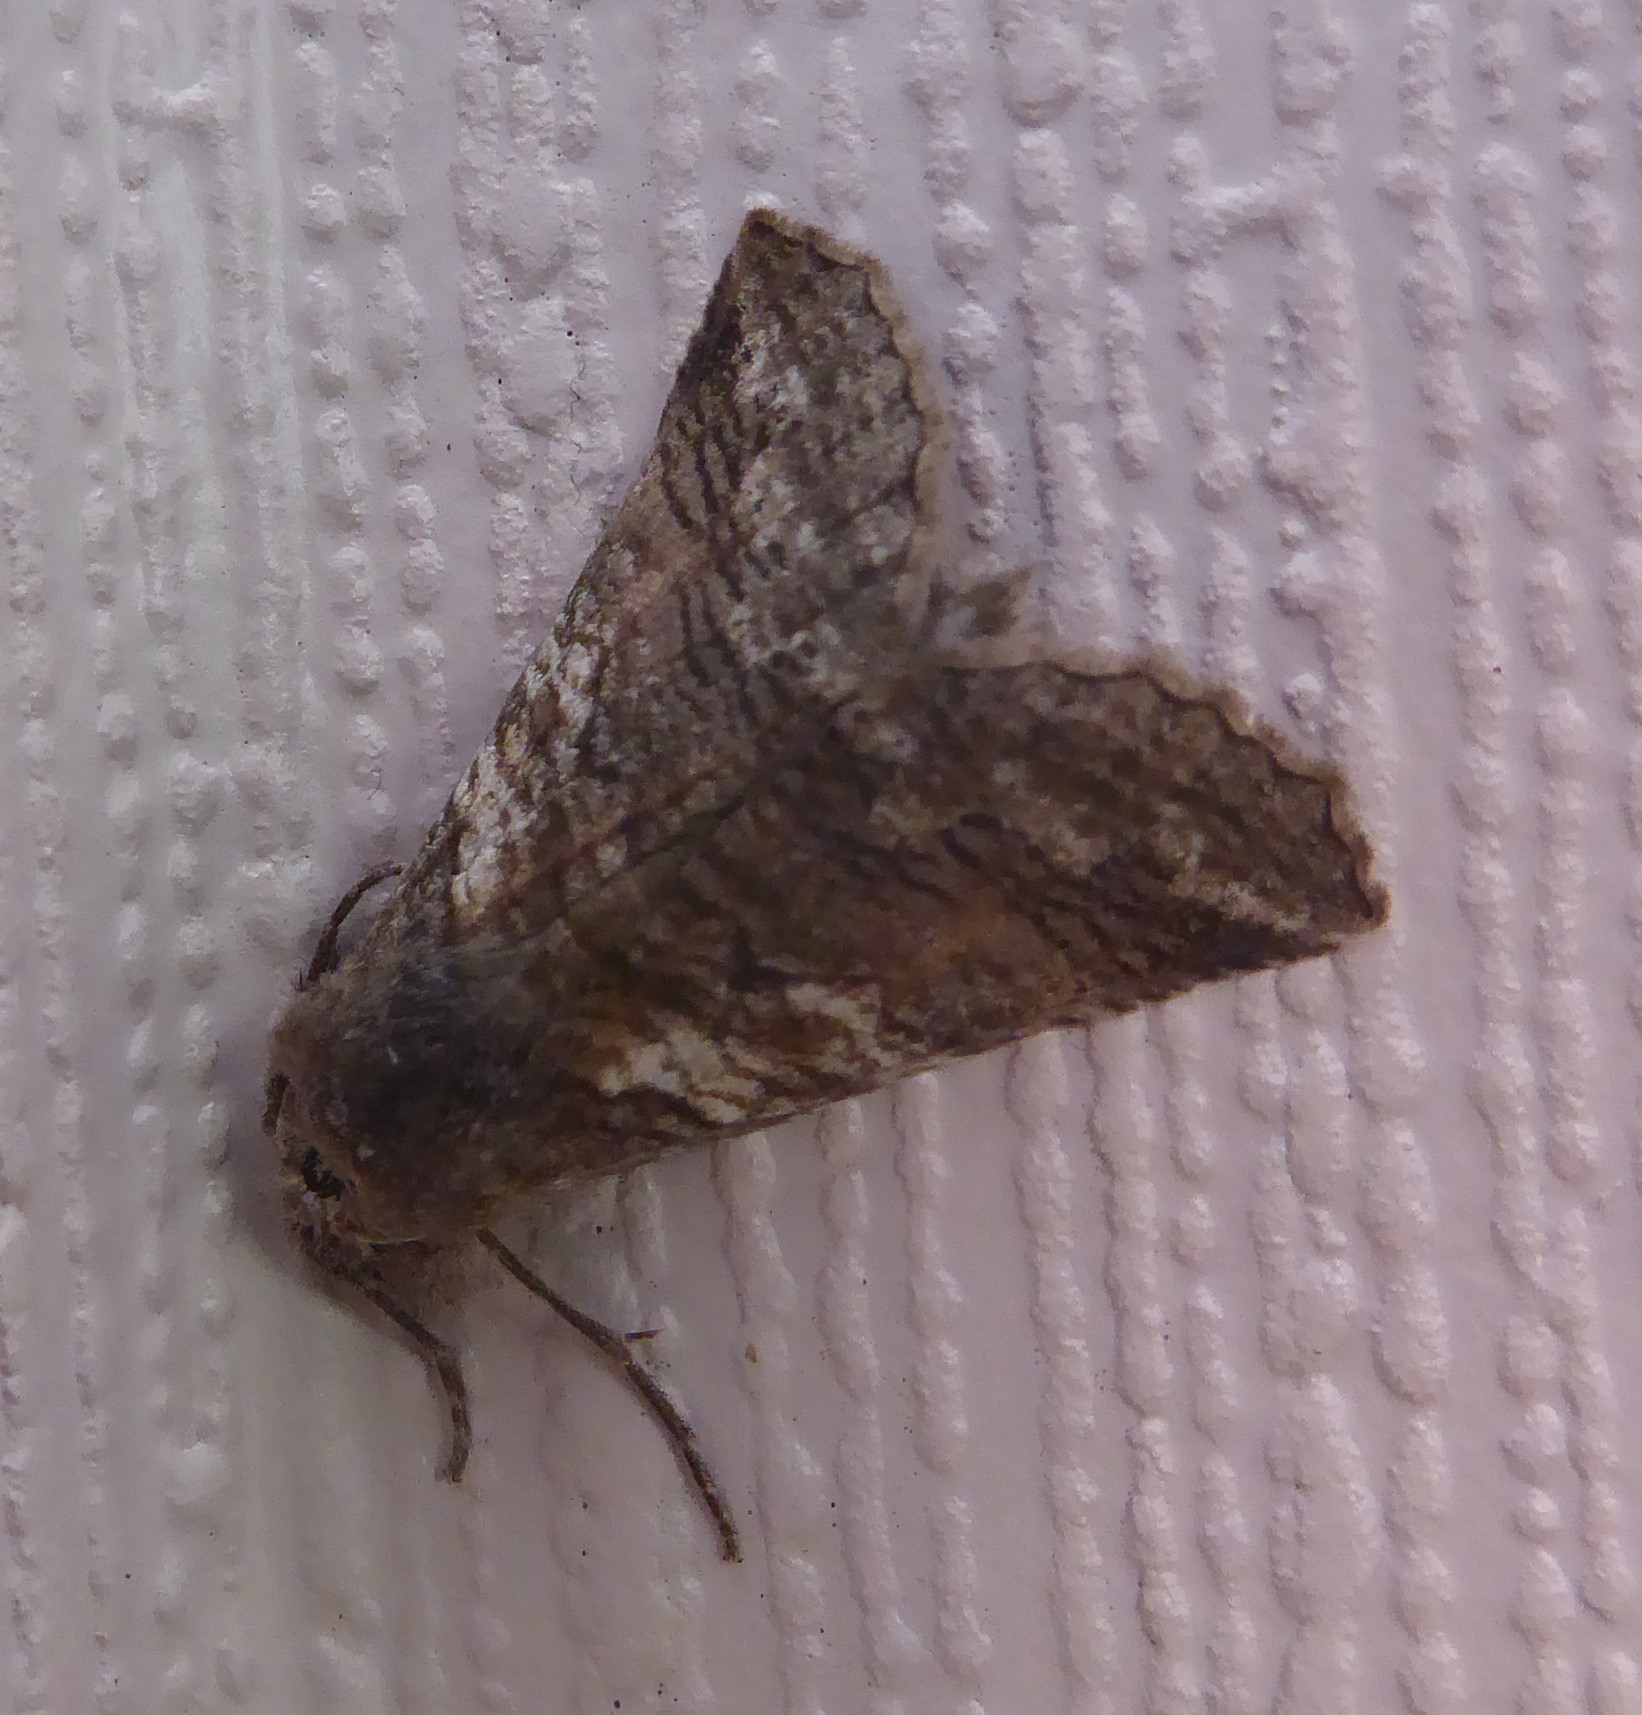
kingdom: Animalia
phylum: Arthropoda
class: Insecta
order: Lepidoptera
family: Geometridae
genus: Declana
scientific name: Declana
